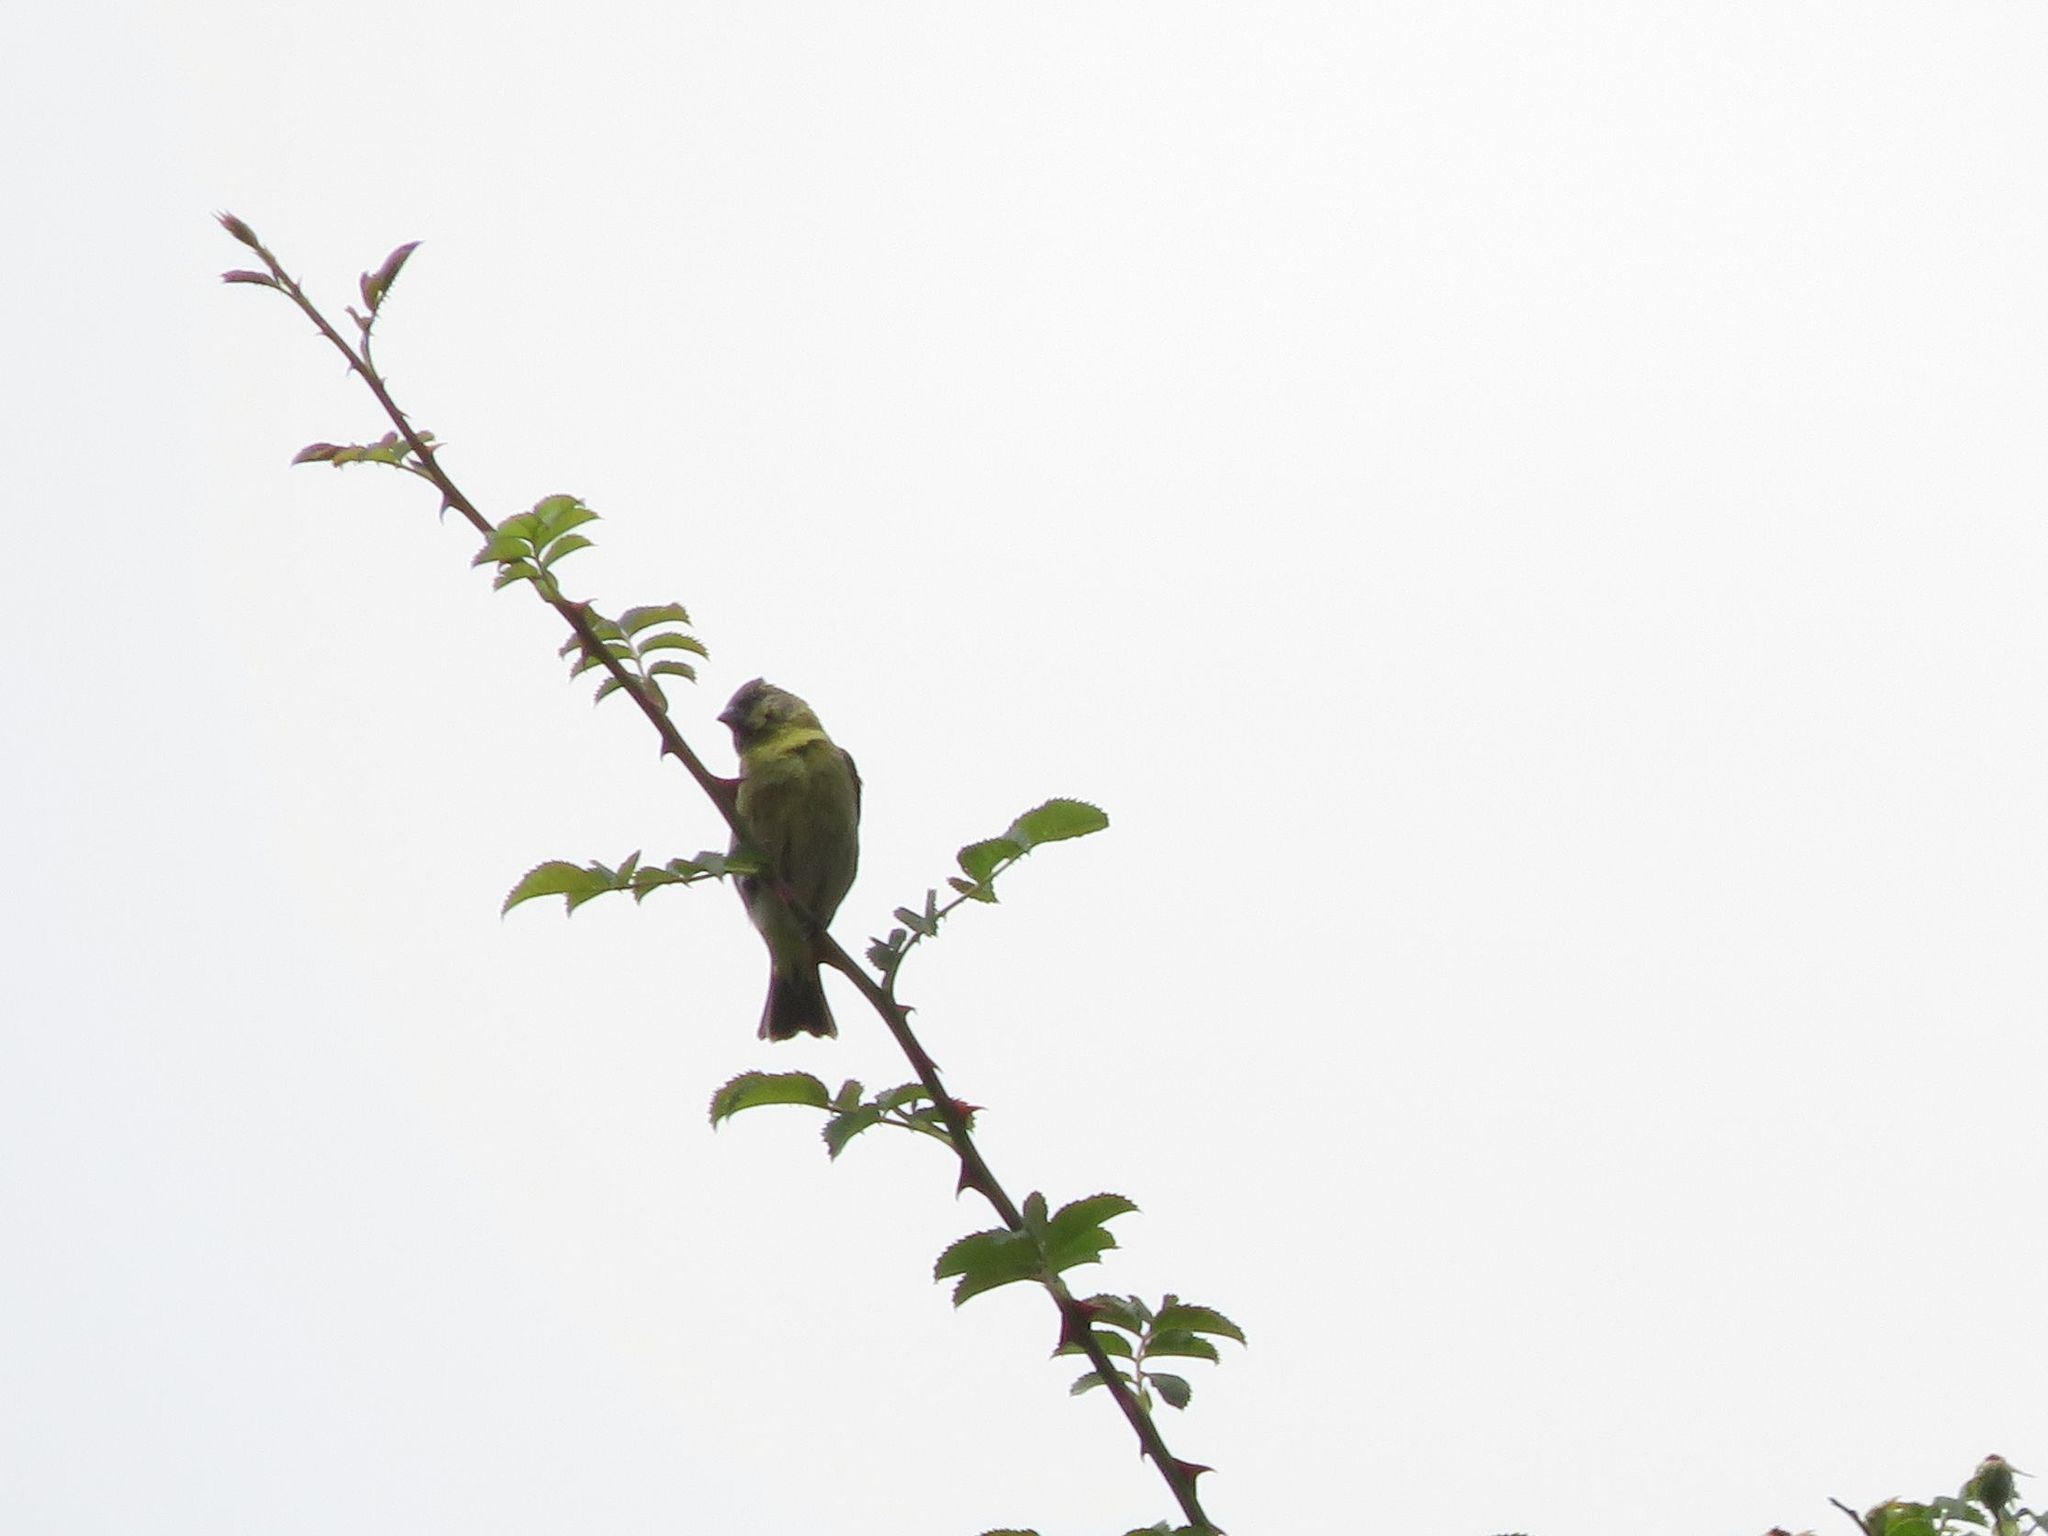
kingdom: Animalia
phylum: Chordata
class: Aves
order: Passeriformes
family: Thraupidae
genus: Phrygilus
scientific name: Phrygilus gayi
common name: Grey-hooded sierra finch
